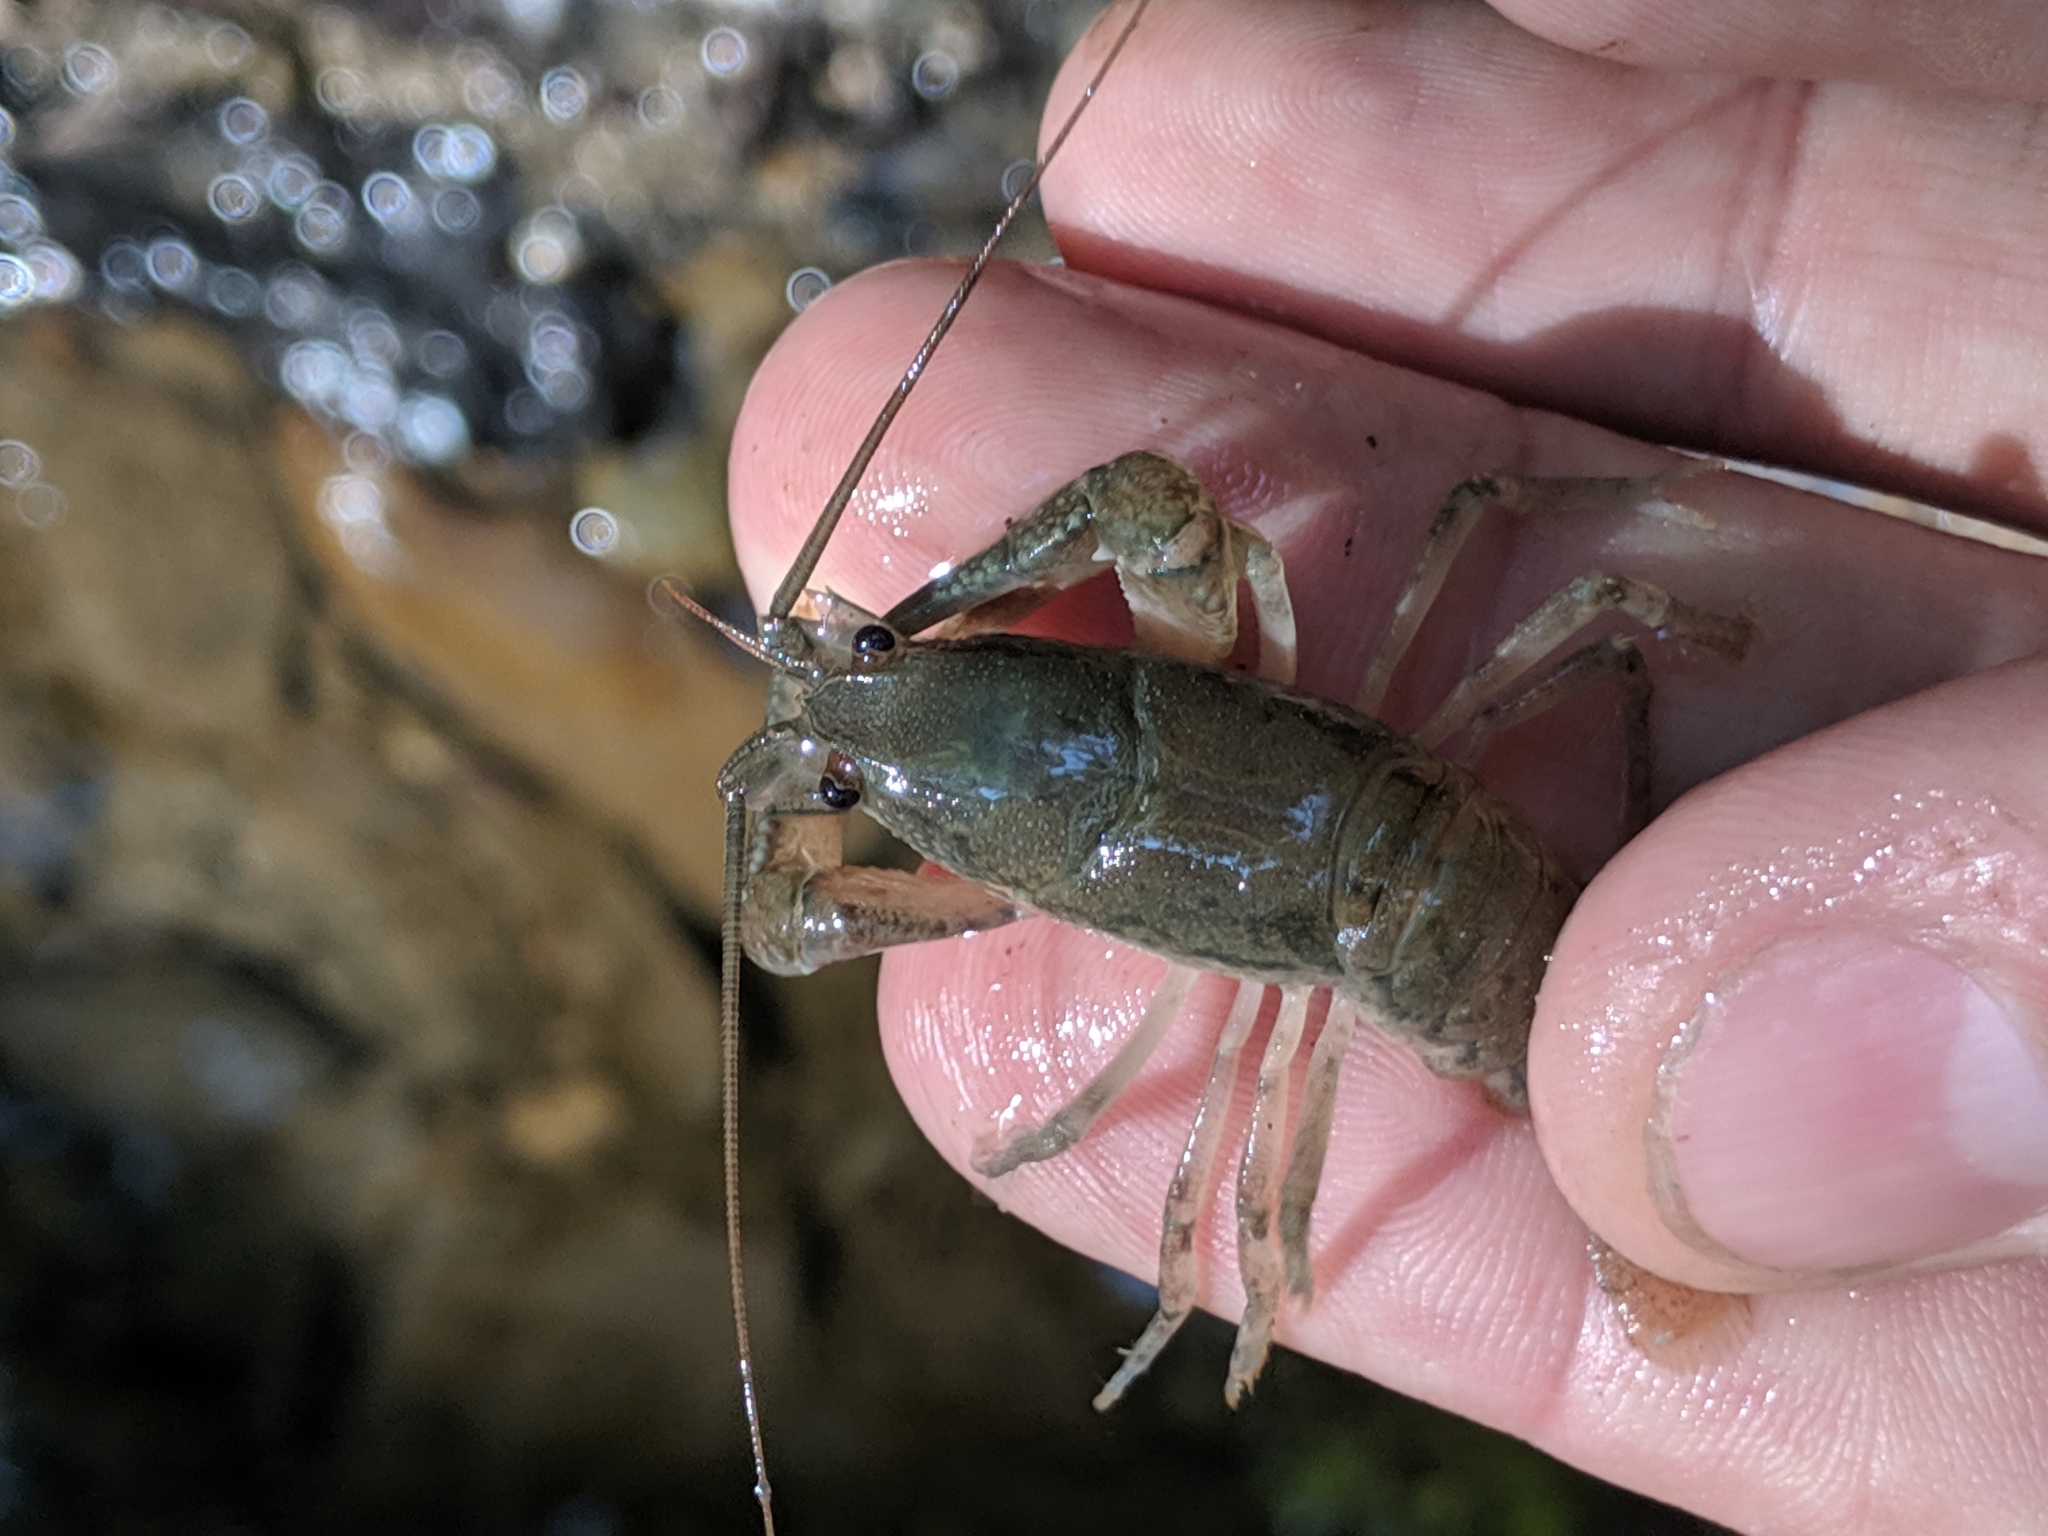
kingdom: Animalia
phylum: Arthropoda
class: Malacostraca
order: Decapoda
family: Cambaridae
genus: Cambarus
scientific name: Cambarus bartonii
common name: Appalachian brook crayfish
